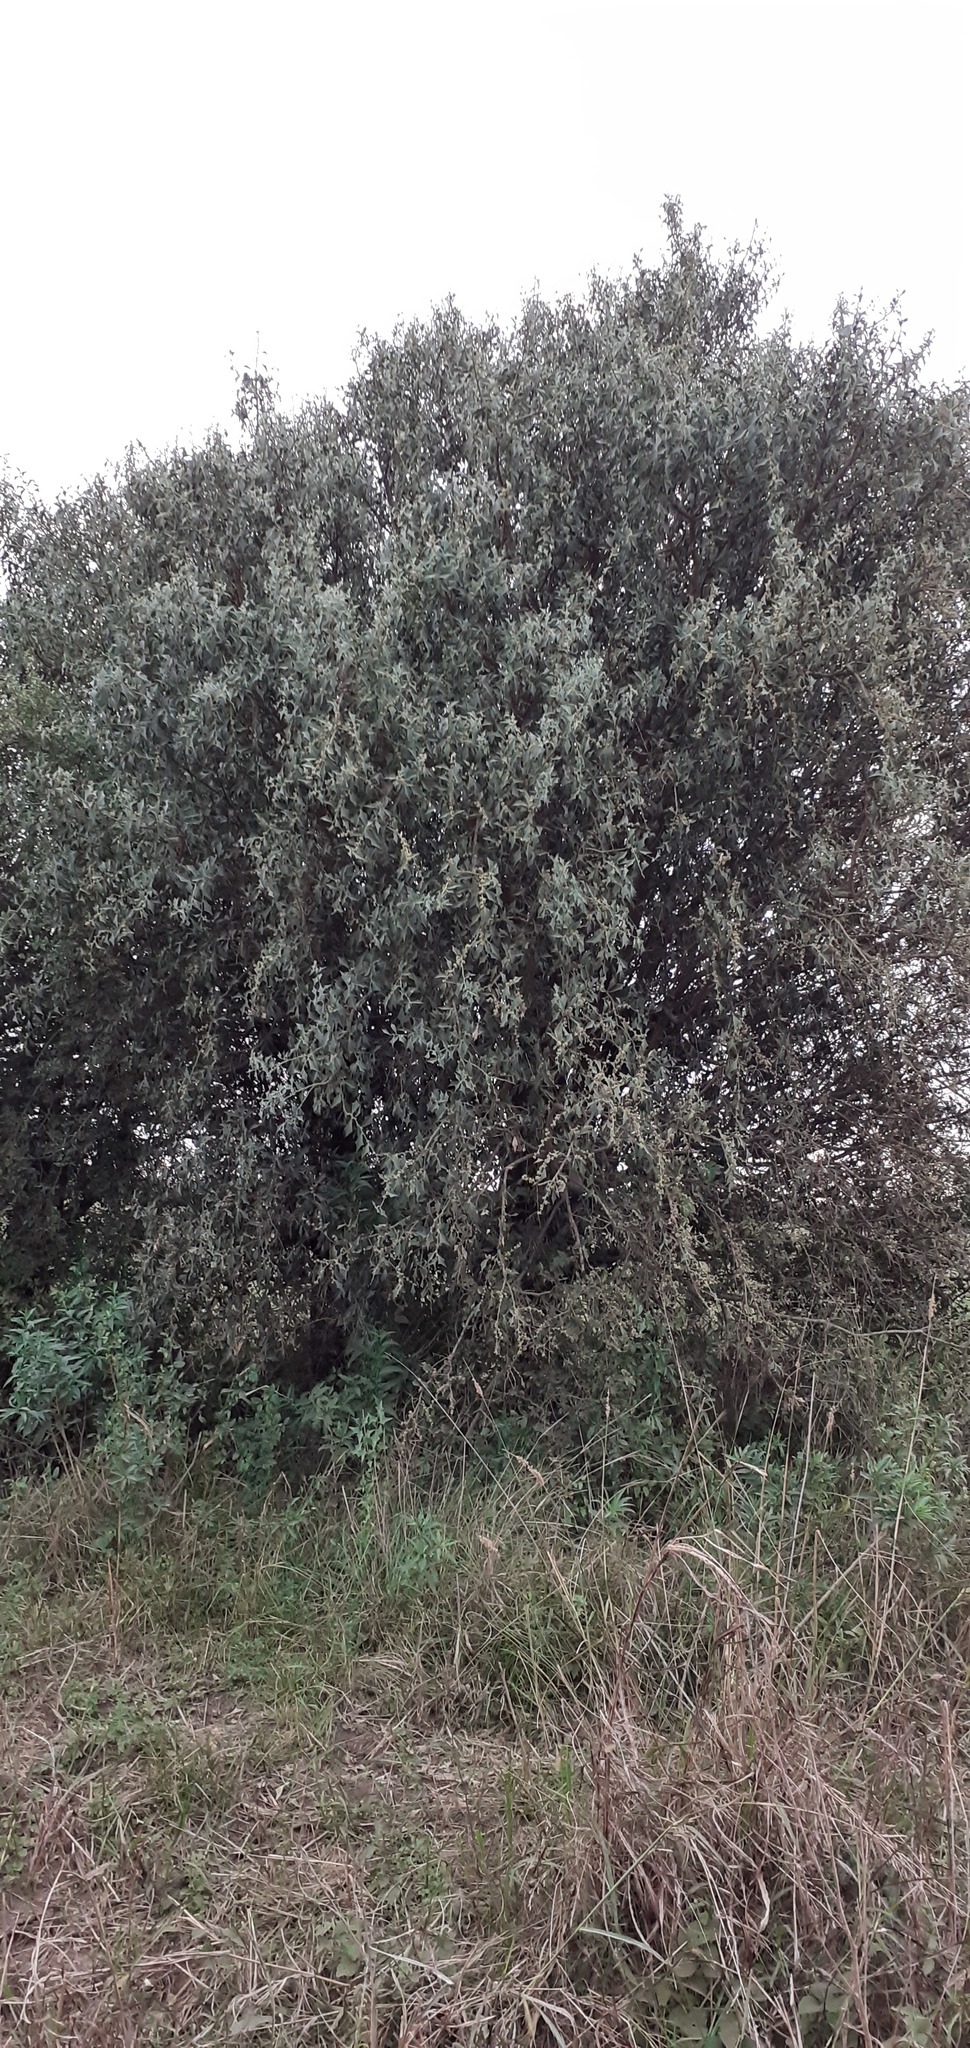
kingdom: Plantae
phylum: Tracheophyta
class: Magnoliopsida
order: Santalales
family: Cervantesiaceae
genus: Jodina
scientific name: Jodina rhombifolia
